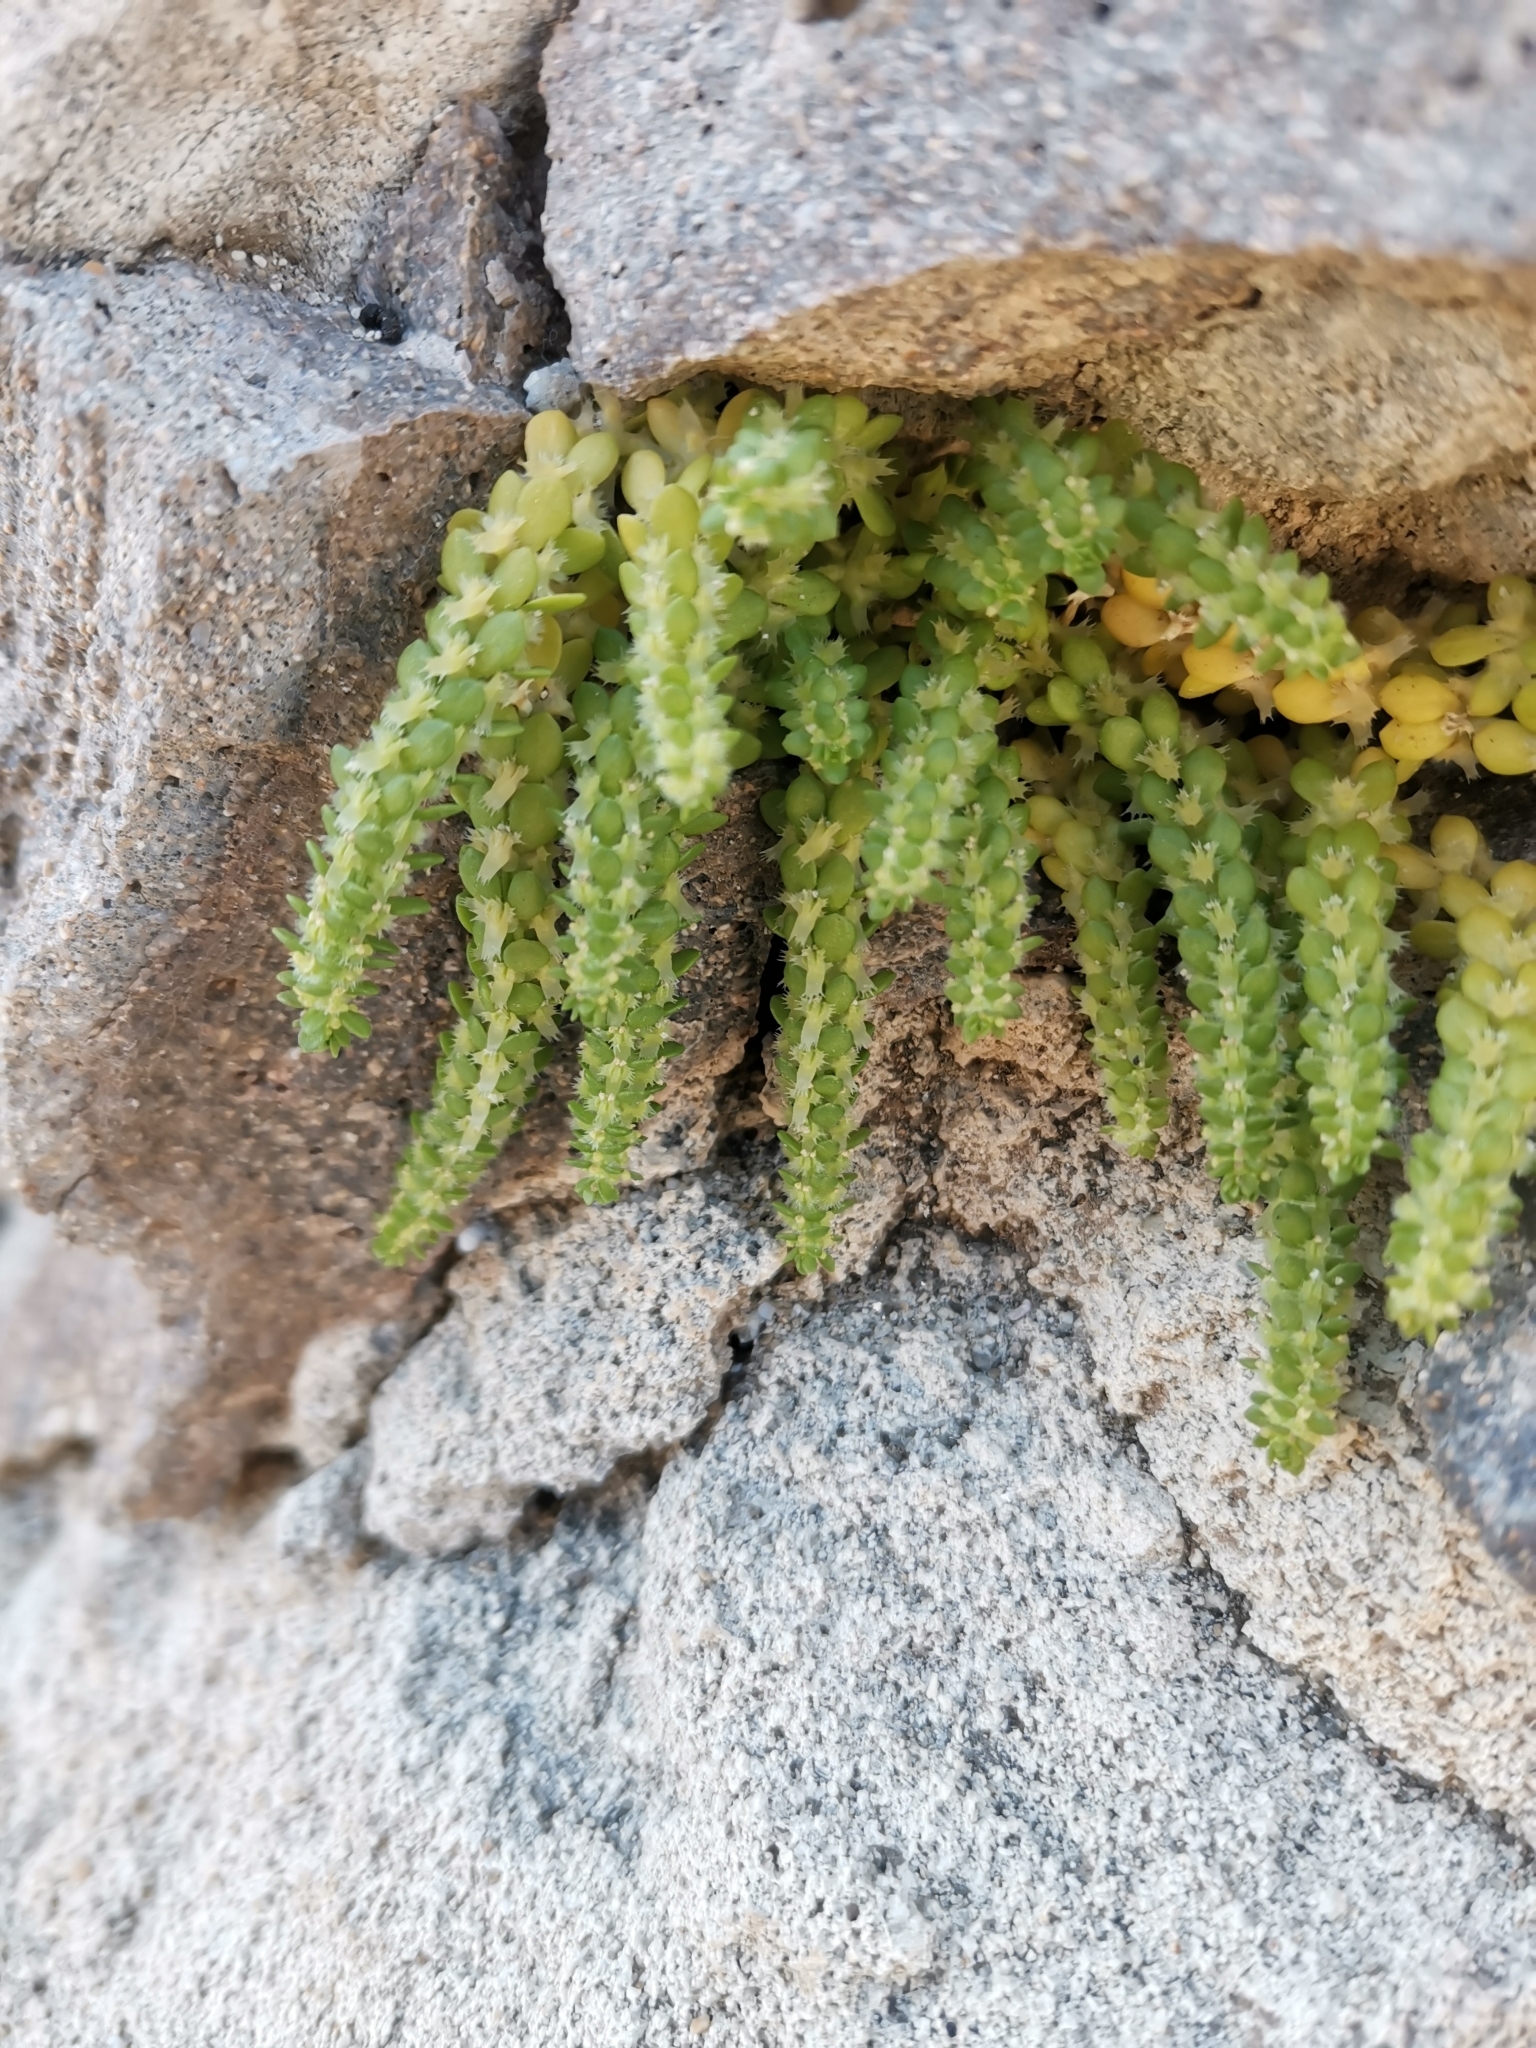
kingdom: Plantae
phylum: Tracheophyta
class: Magnoliopsida
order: Gentianales
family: Rubiaceae
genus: Valantia
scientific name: Valantia muralis
